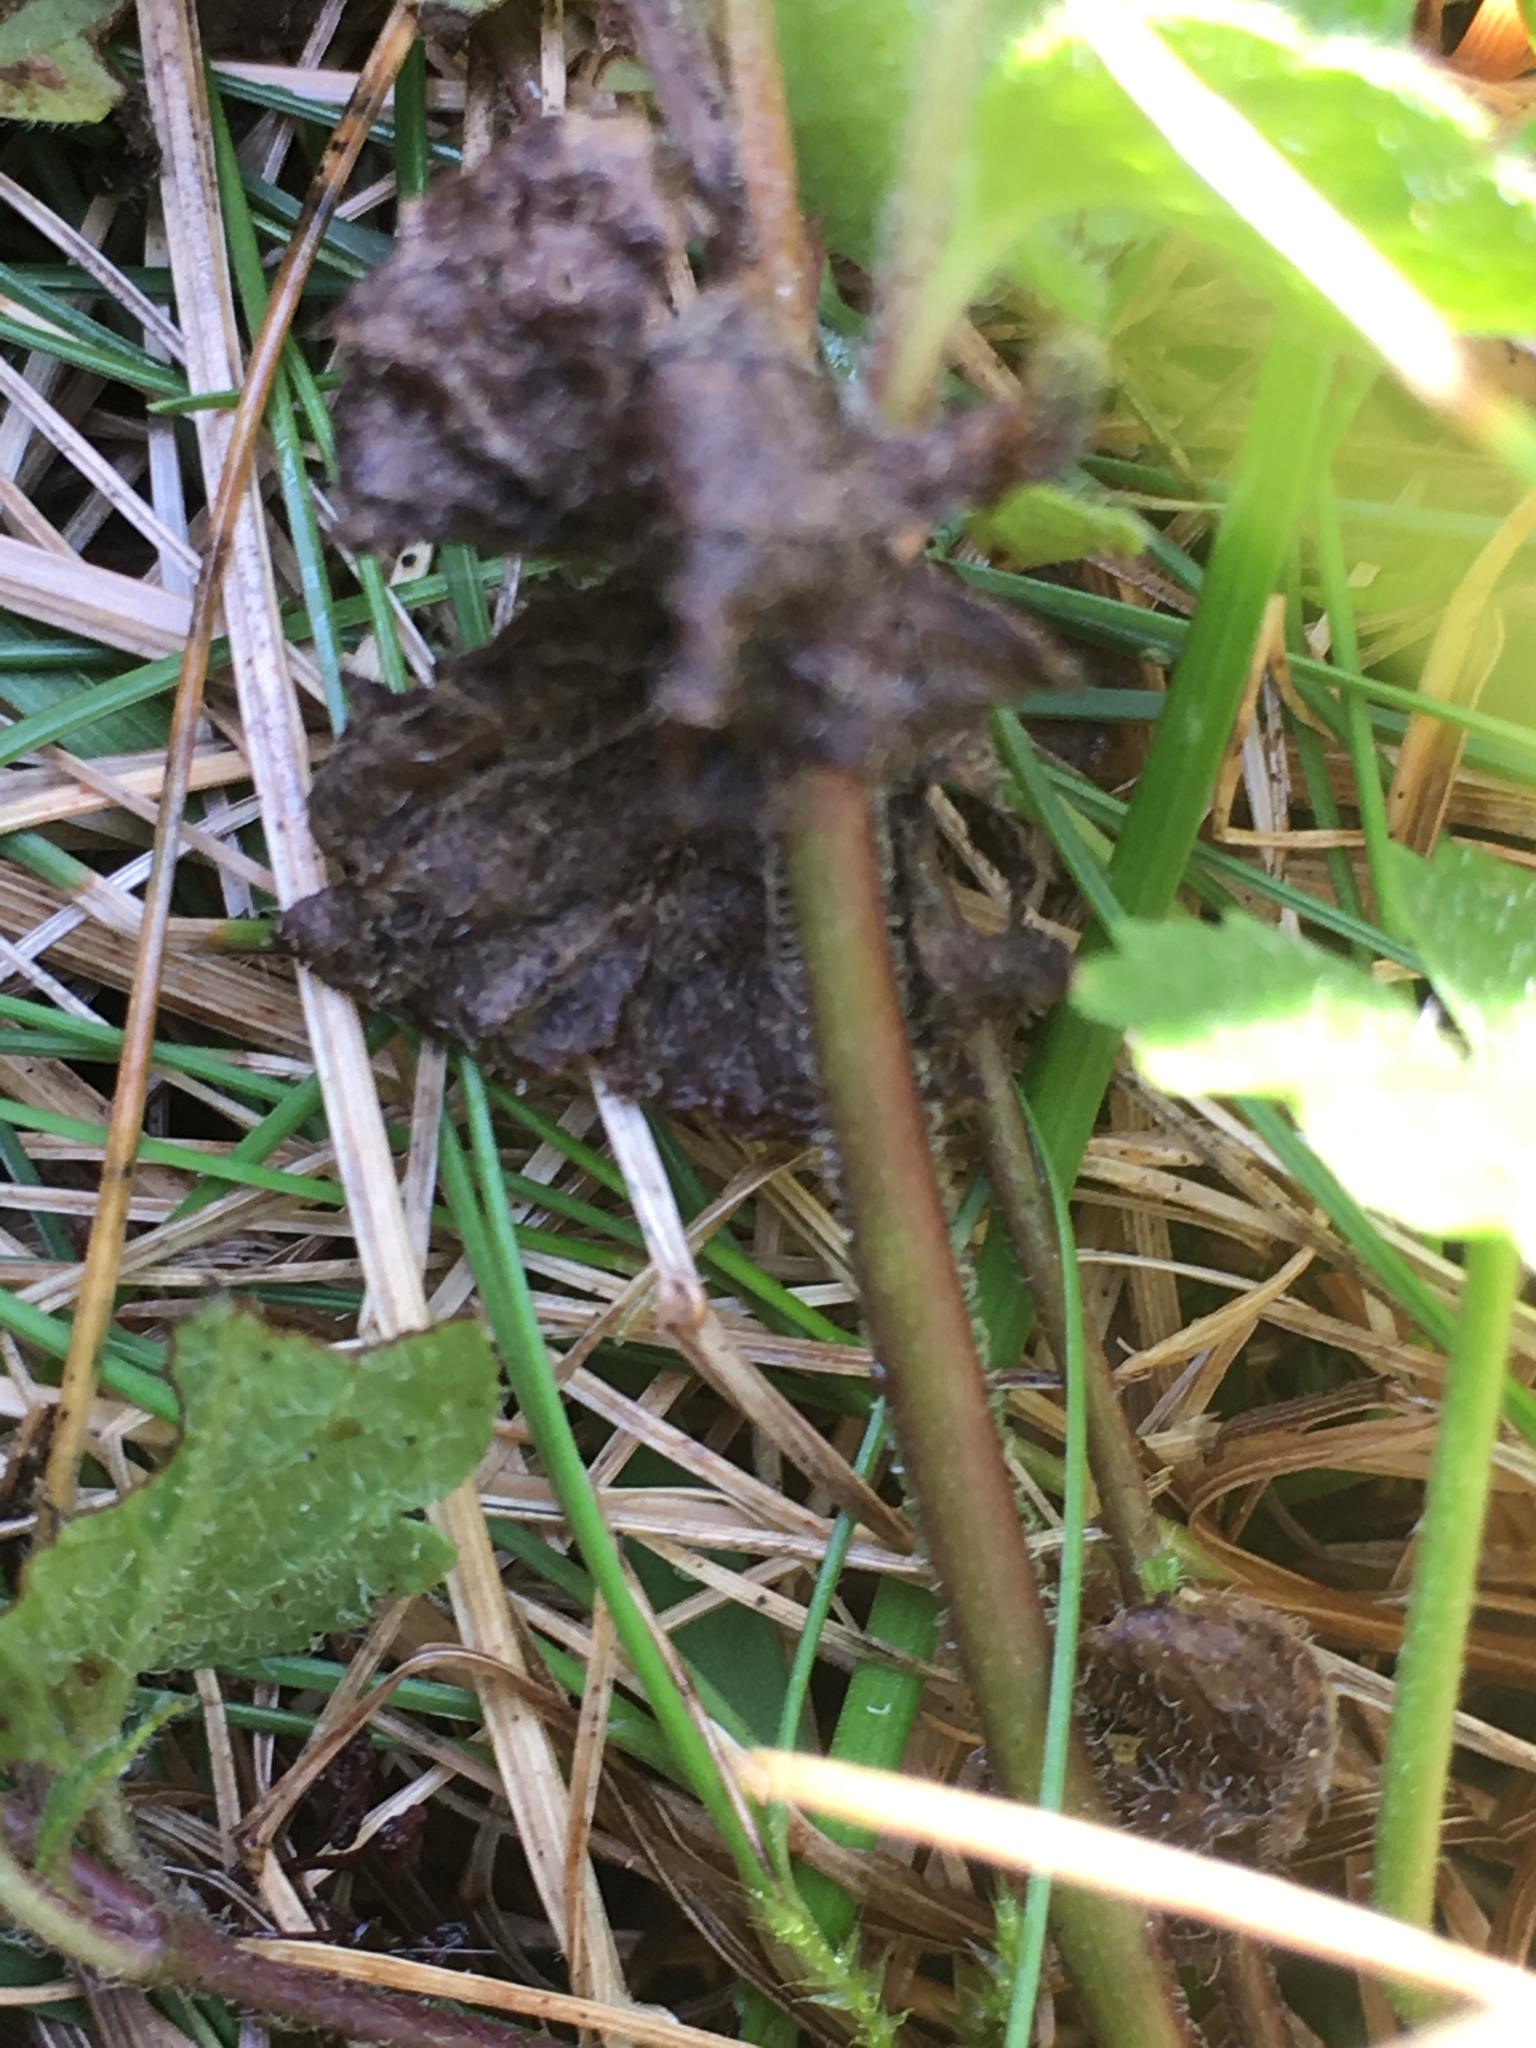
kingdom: Plantae
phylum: Tracheophyta
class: Magnoliopsida
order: Lamiales
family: Plantaginaceae
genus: Veronica
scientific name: Veronica chamaedrys
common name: Germander speedwell
